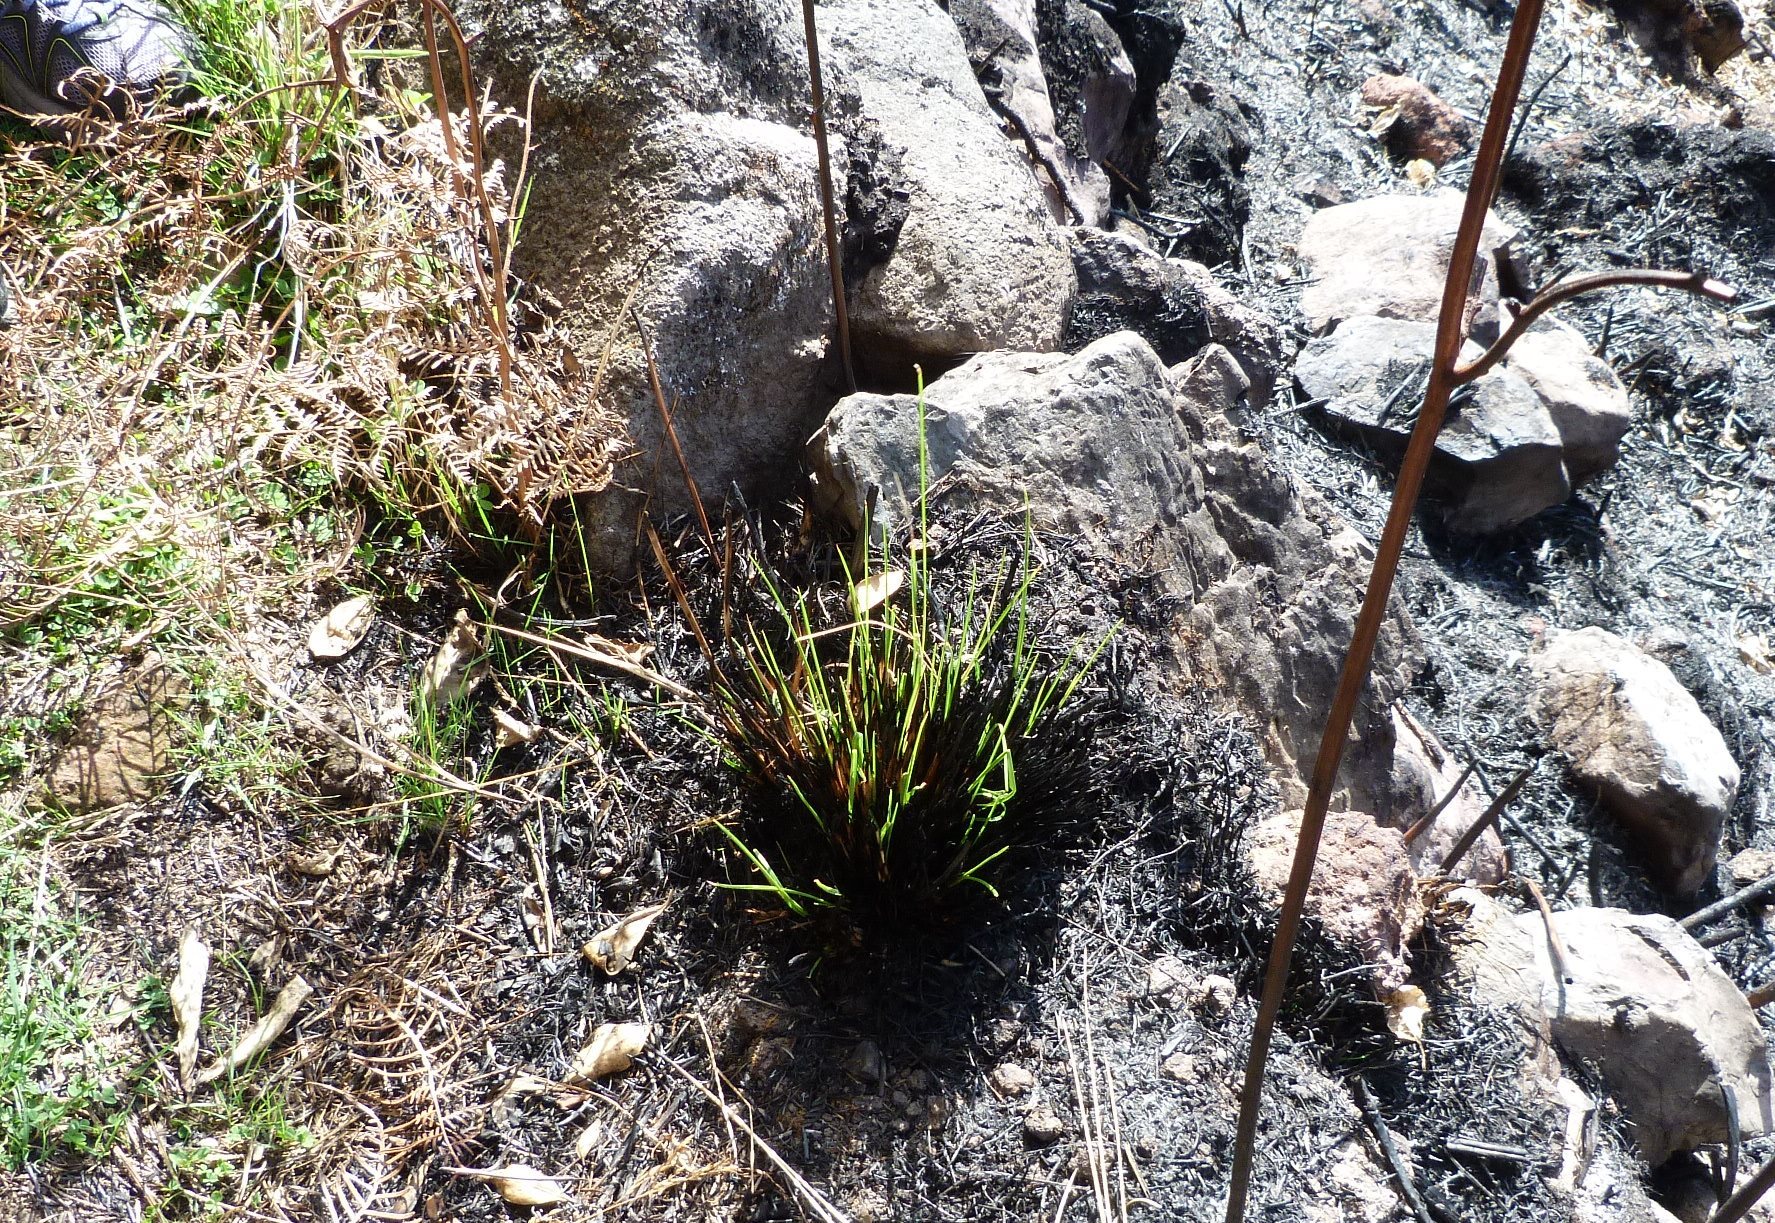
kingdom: Plantae
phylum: Tracheophyta
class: Liliopsida
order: Poales
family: Poaceae
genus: Poa
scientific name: Poa cita
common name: Silver tussock
